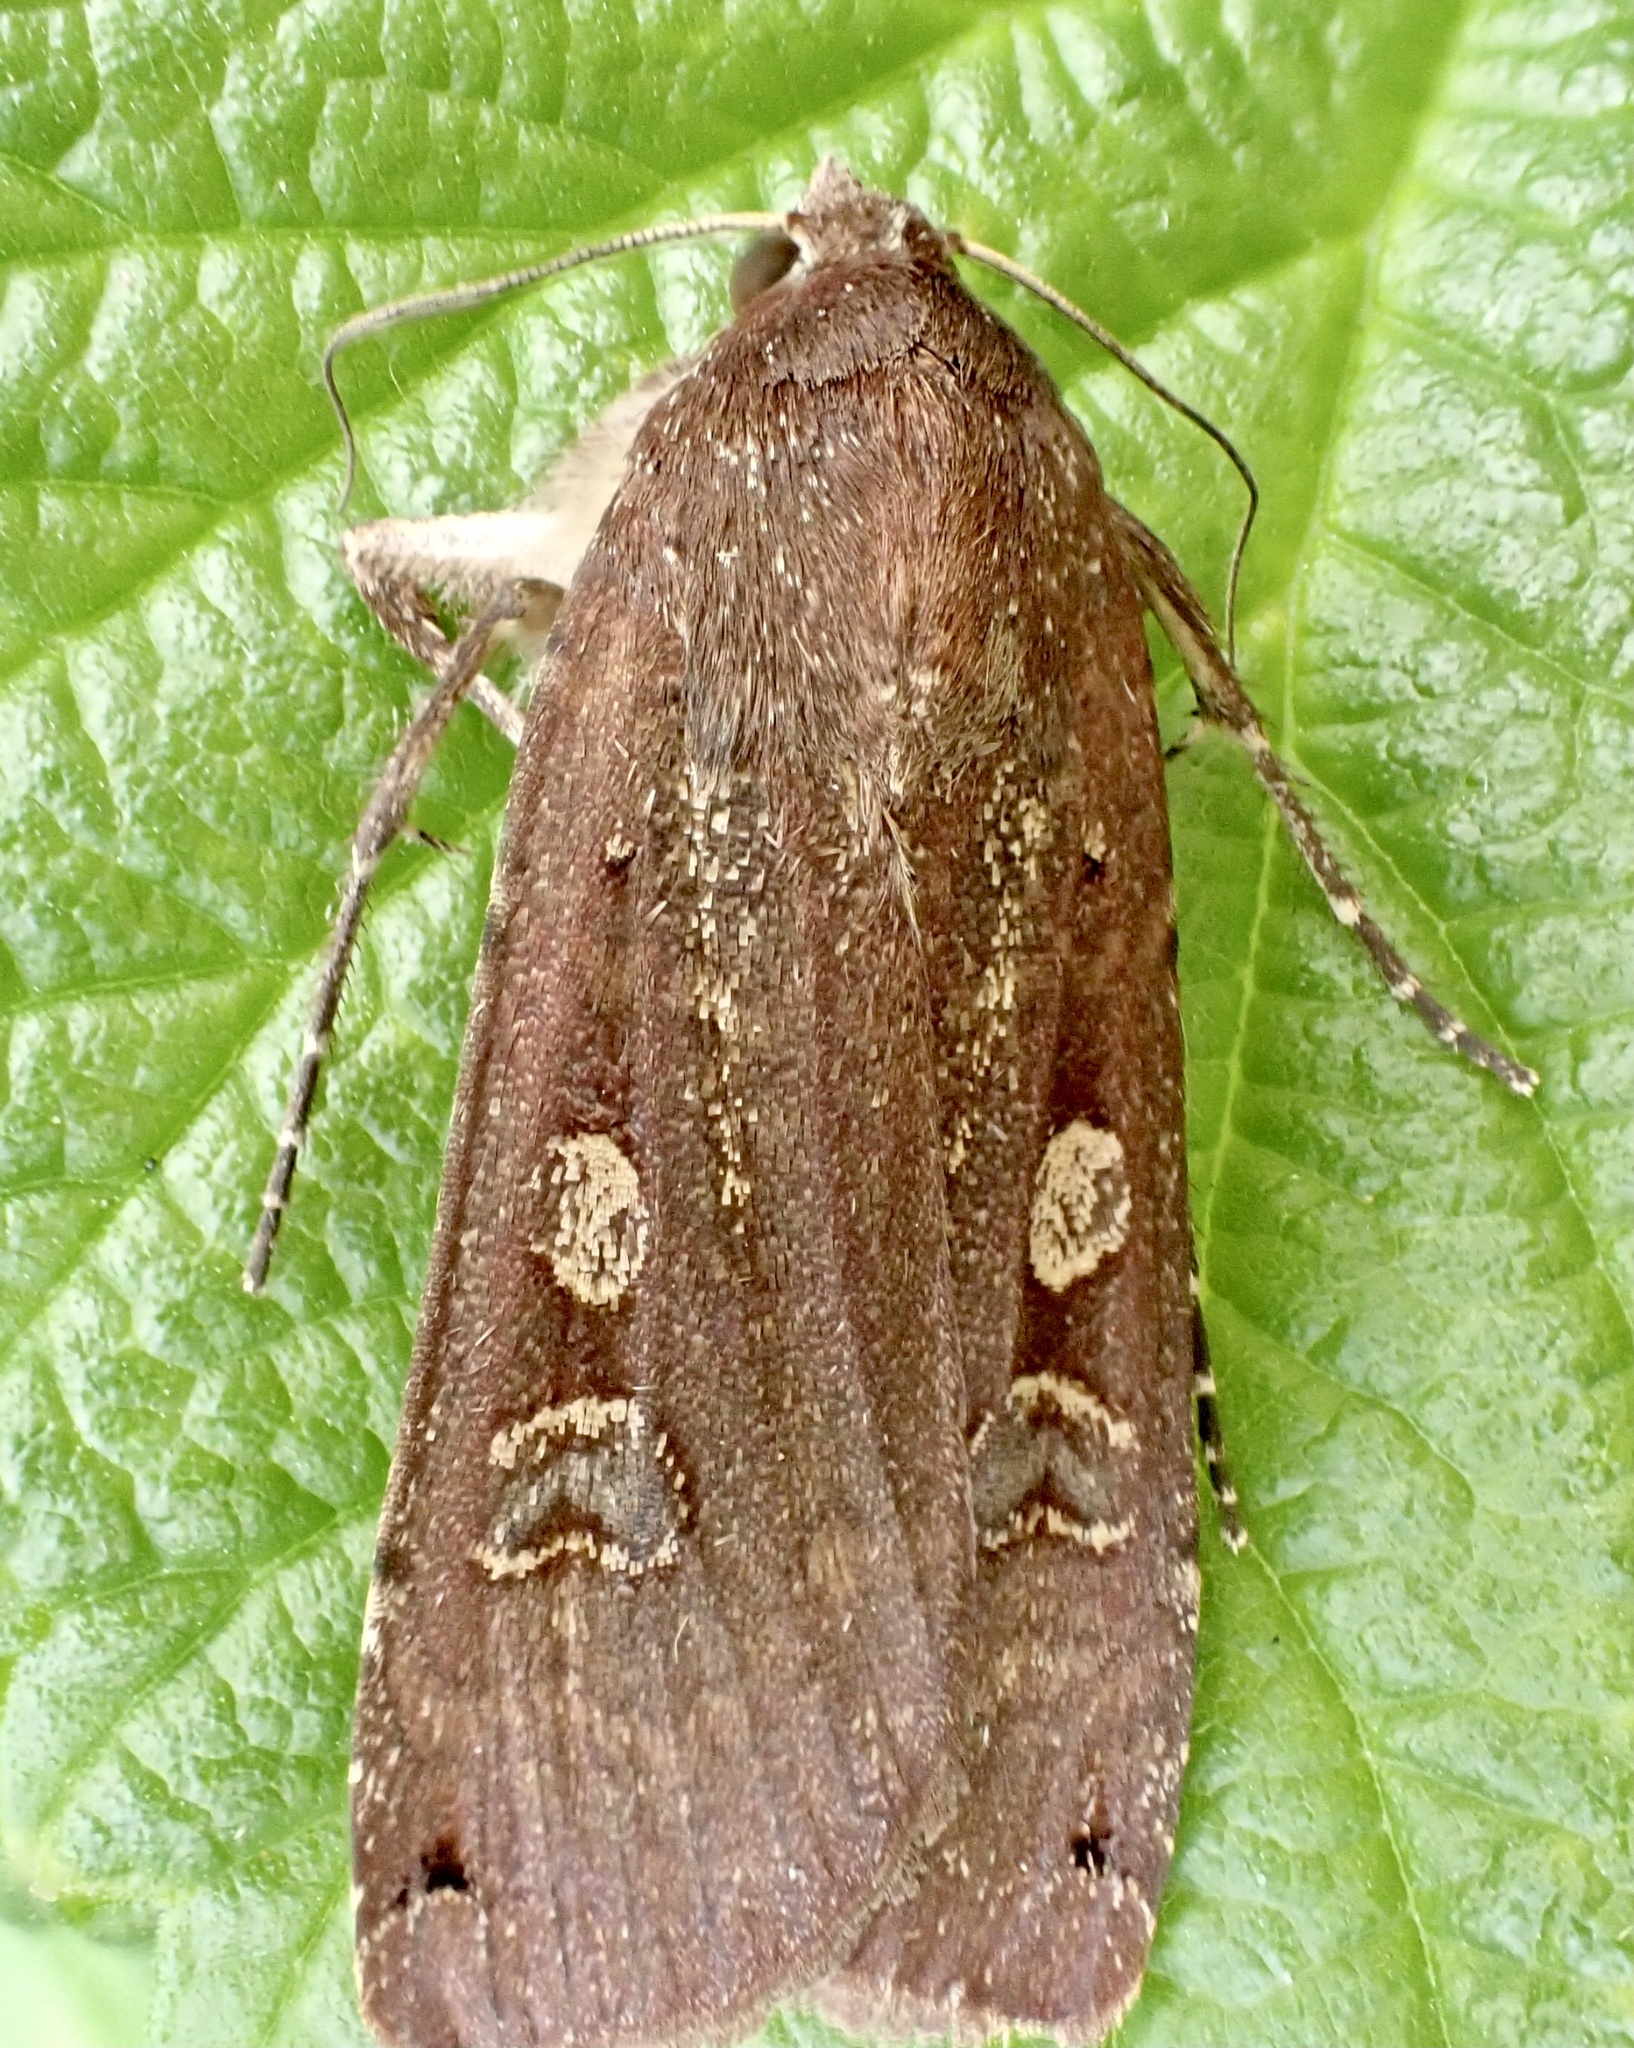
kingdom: Animalia
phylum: Arthropoda
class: Insecta
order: Lepidoptera
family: Noctuidae
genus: Noctua
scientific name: Noctua pronuba
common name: Large yellow underwing
